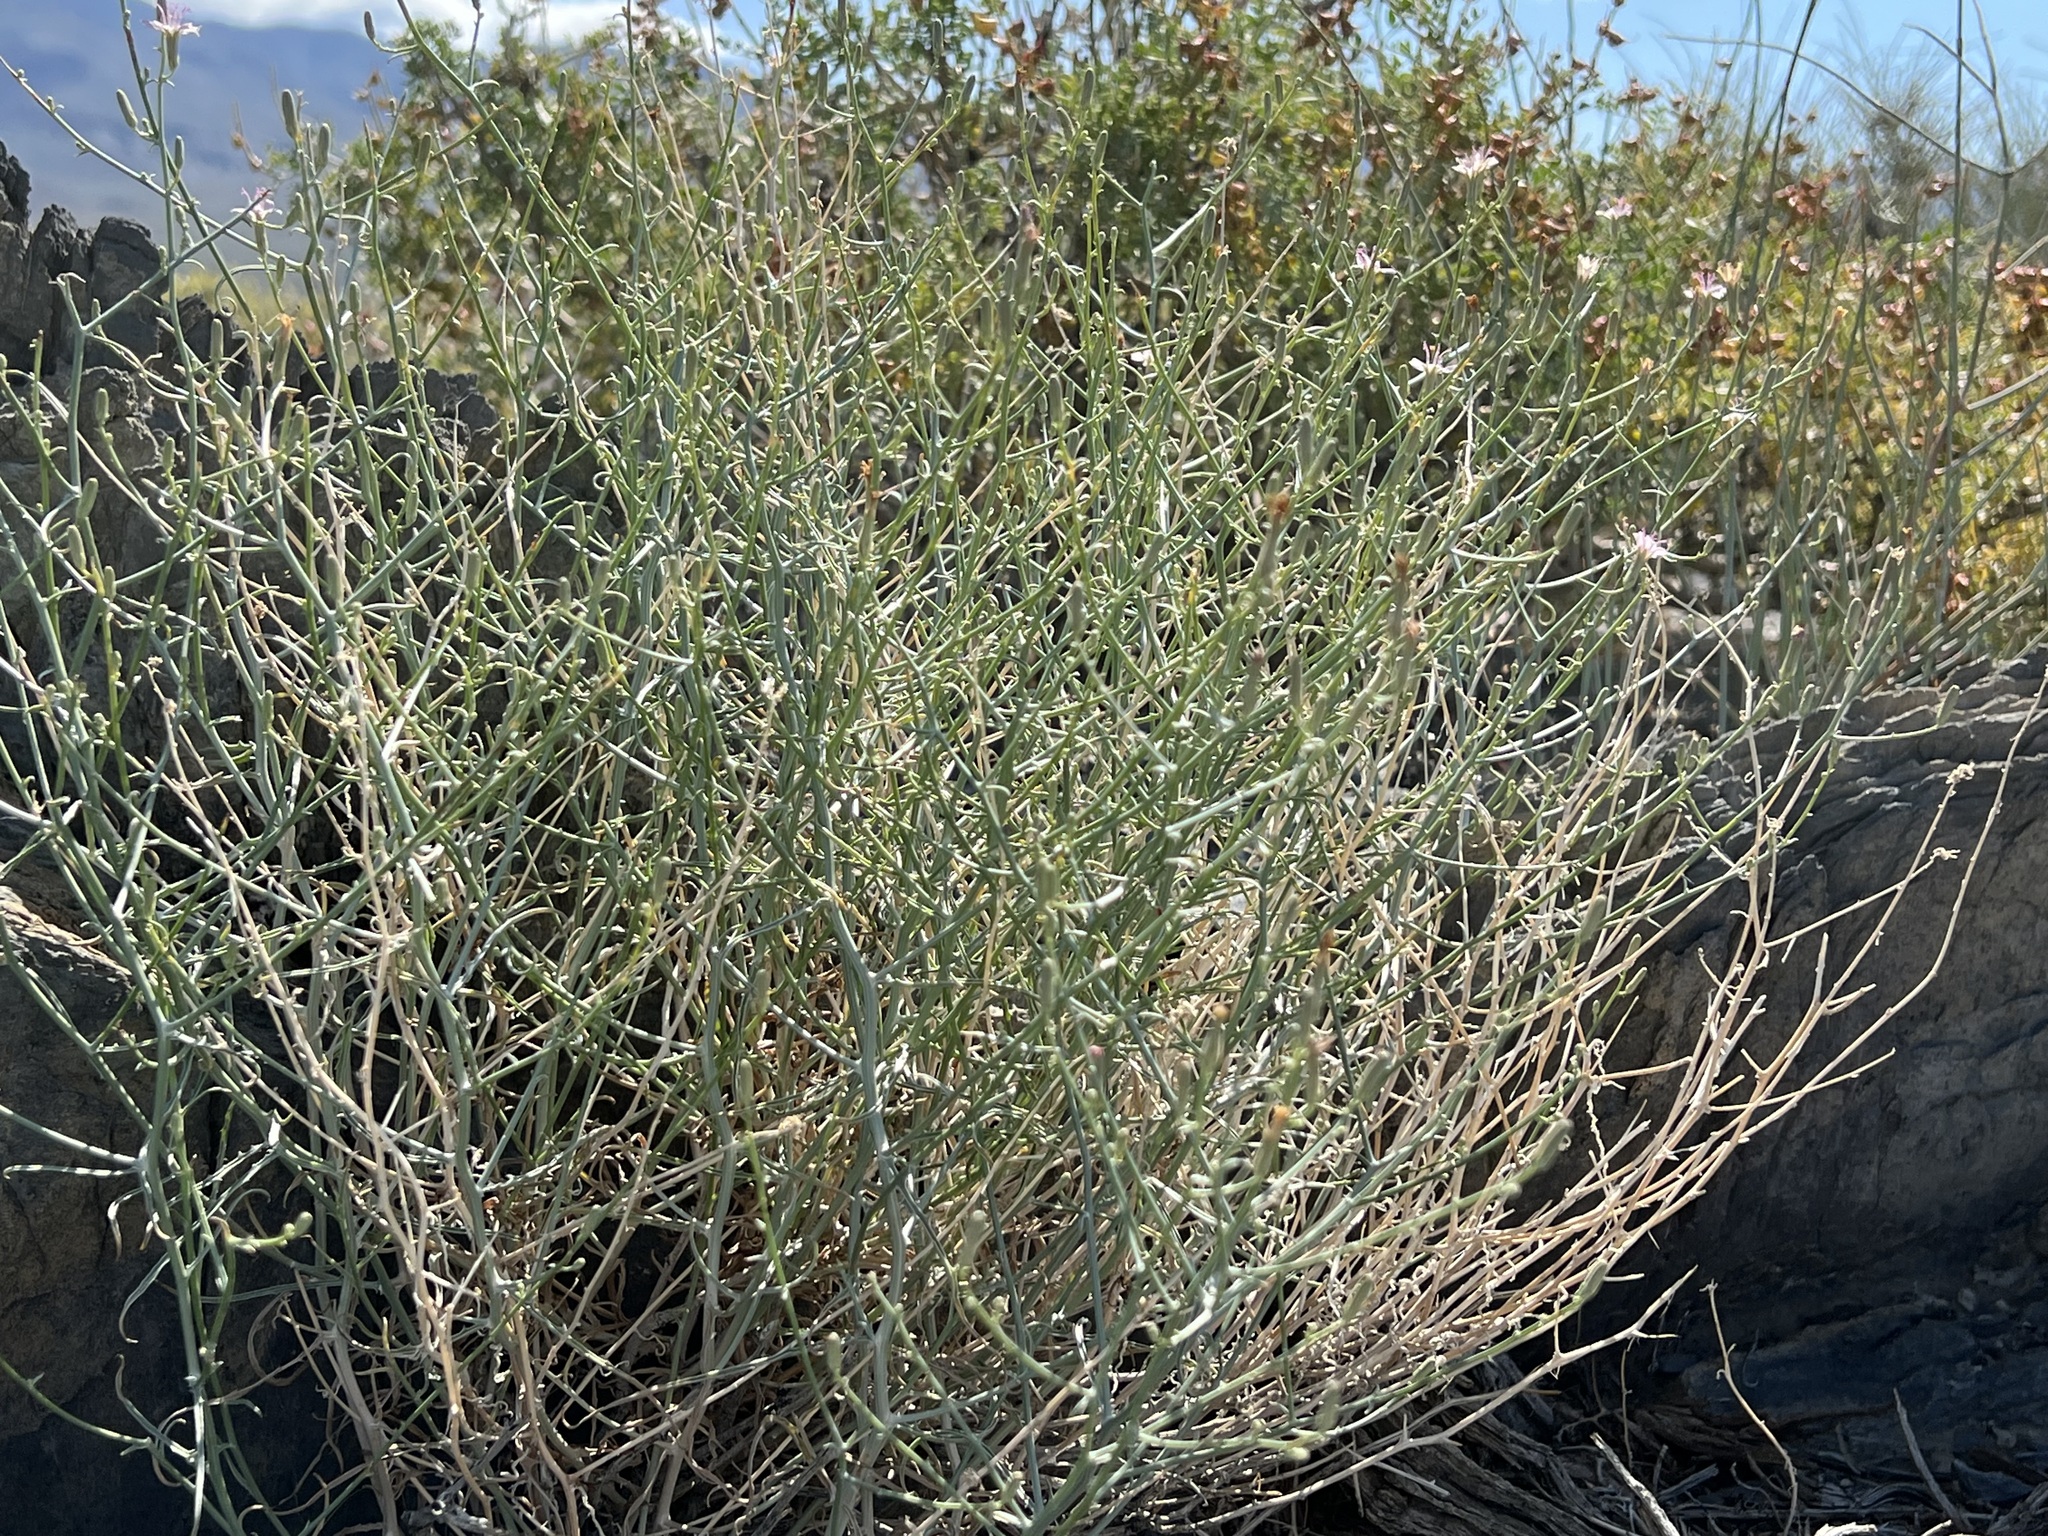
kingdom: Plantae
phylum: Tracheophyta
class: Magnoliopsida
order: Asterales
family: Asteraceae
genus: Stephanomeria
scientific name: Stephanomeria pauciflora
